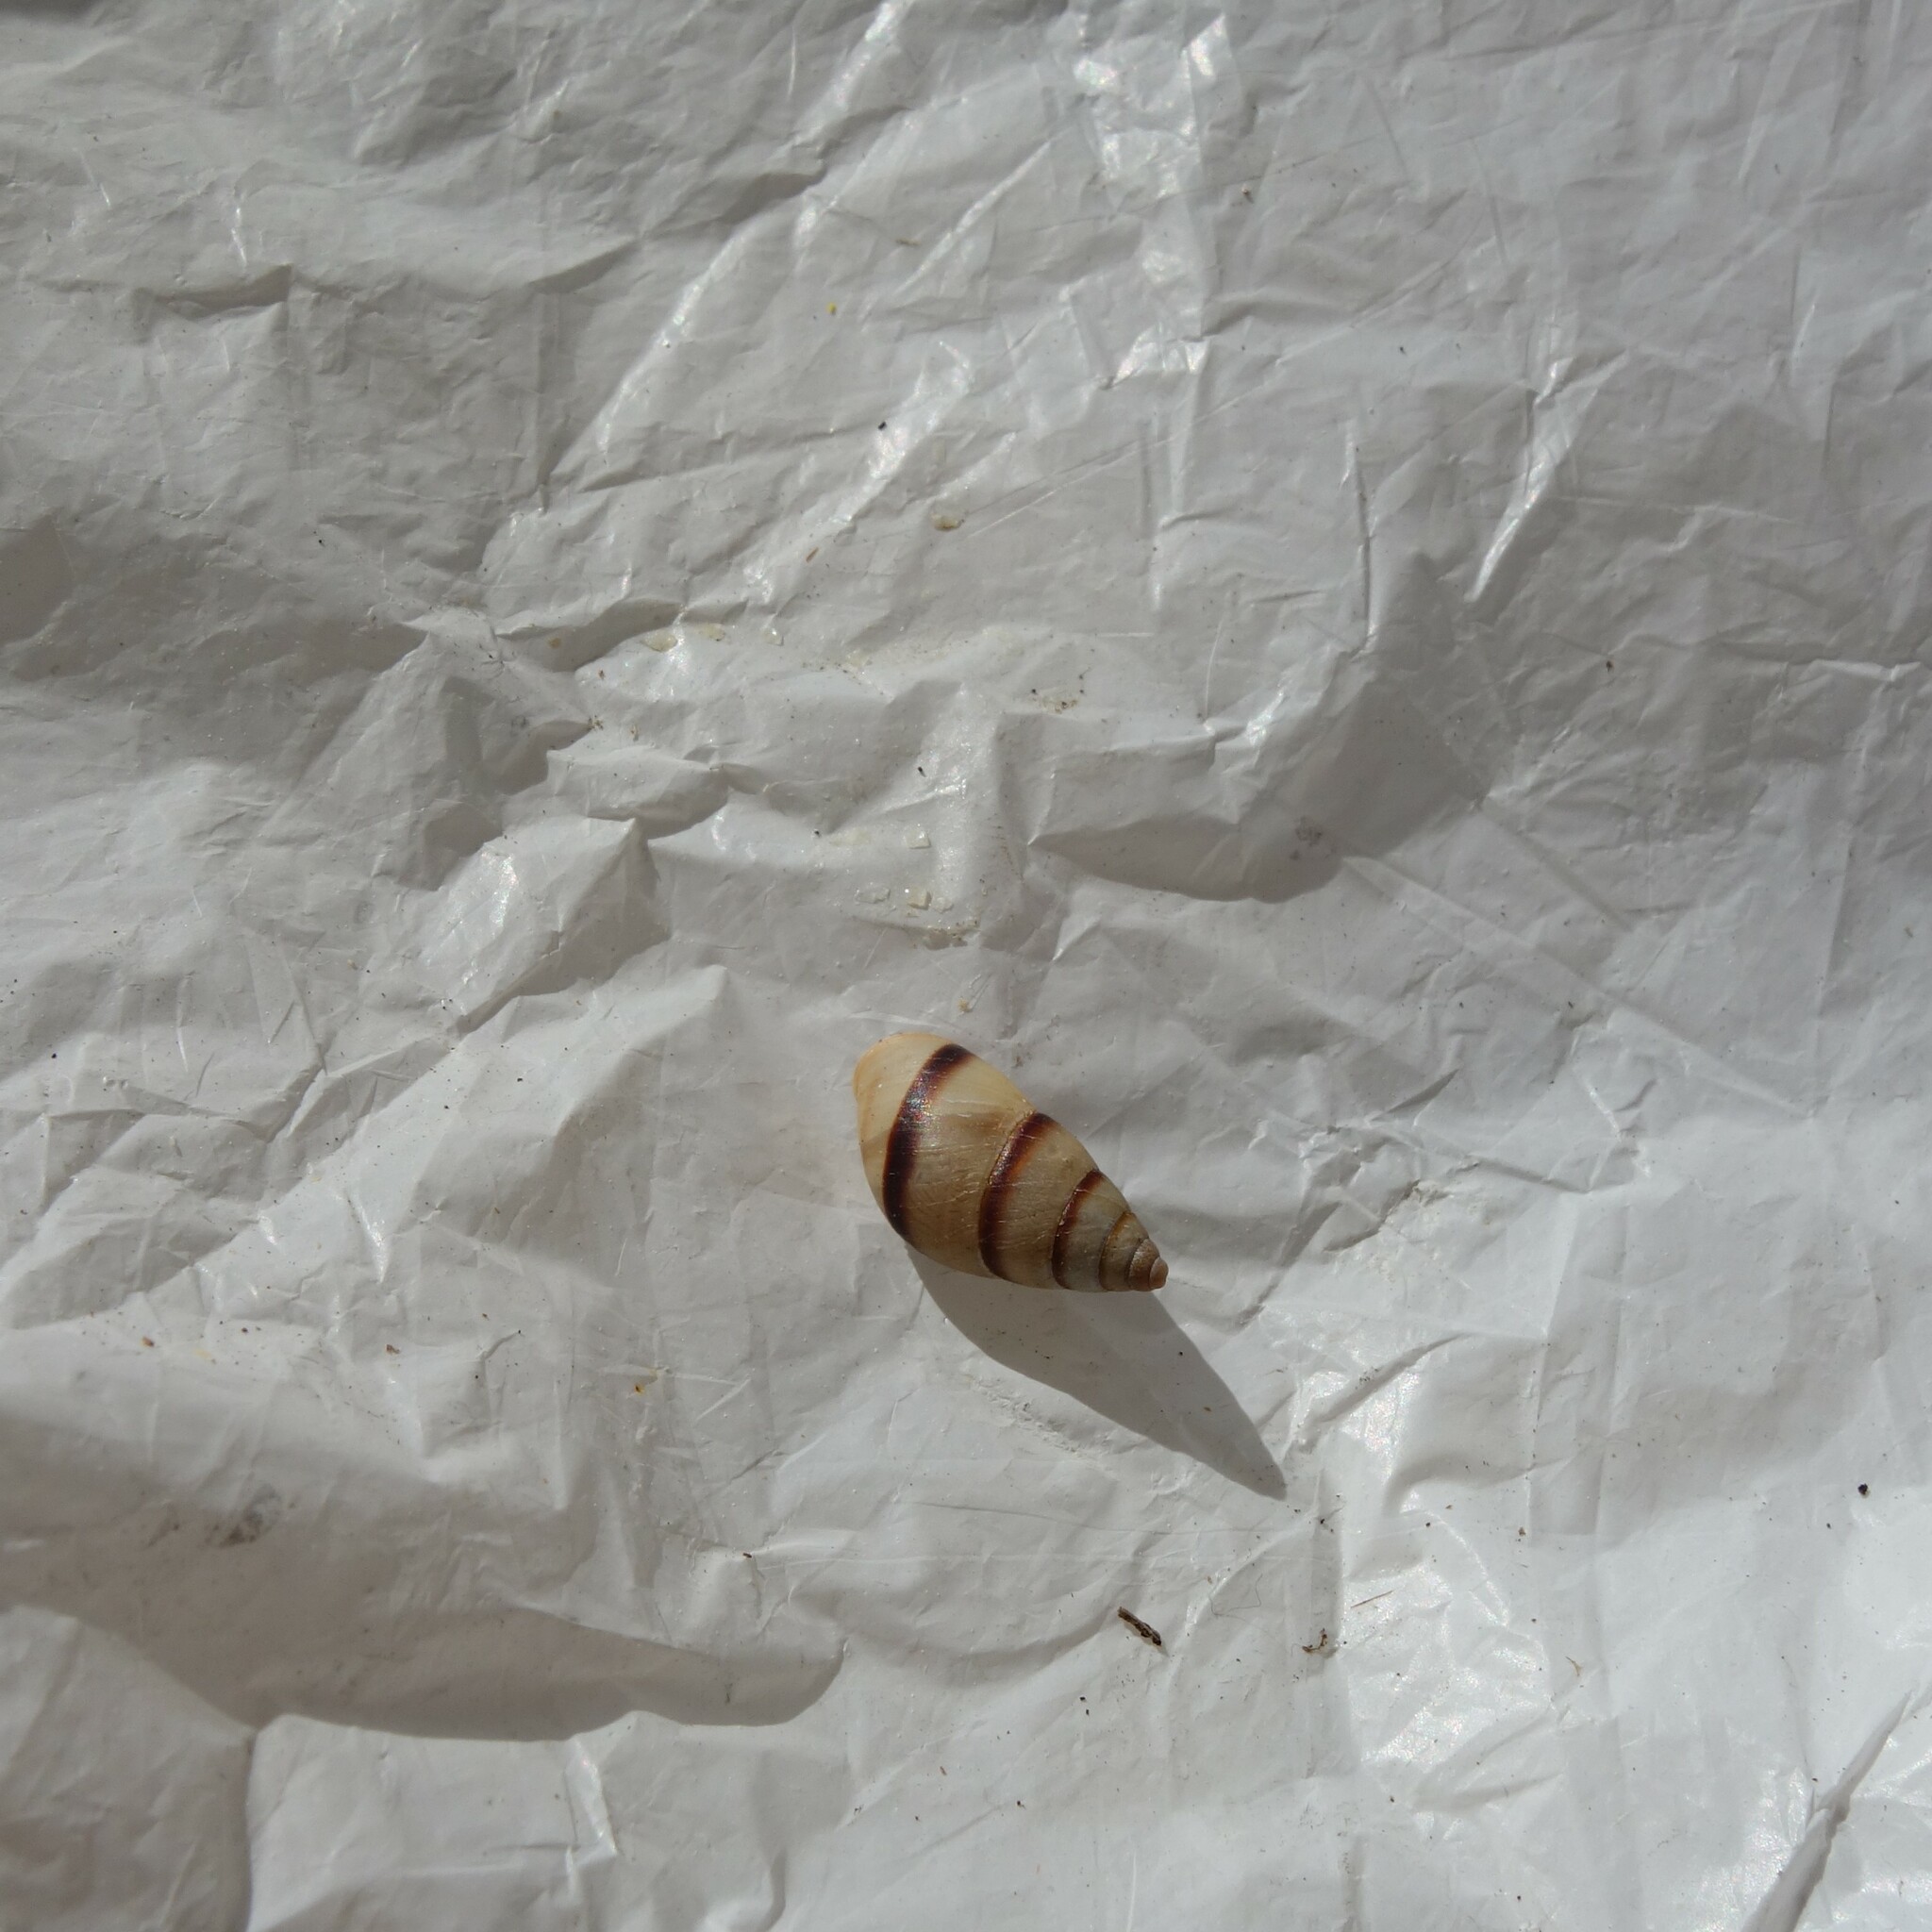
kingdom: Animalia
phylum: Mollusca
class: Gastropoda
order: Stylommatophora
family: Bulimulidae
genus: Bulimulus
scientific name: Bulimulus guadalupensis
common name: West indian bulimulus
